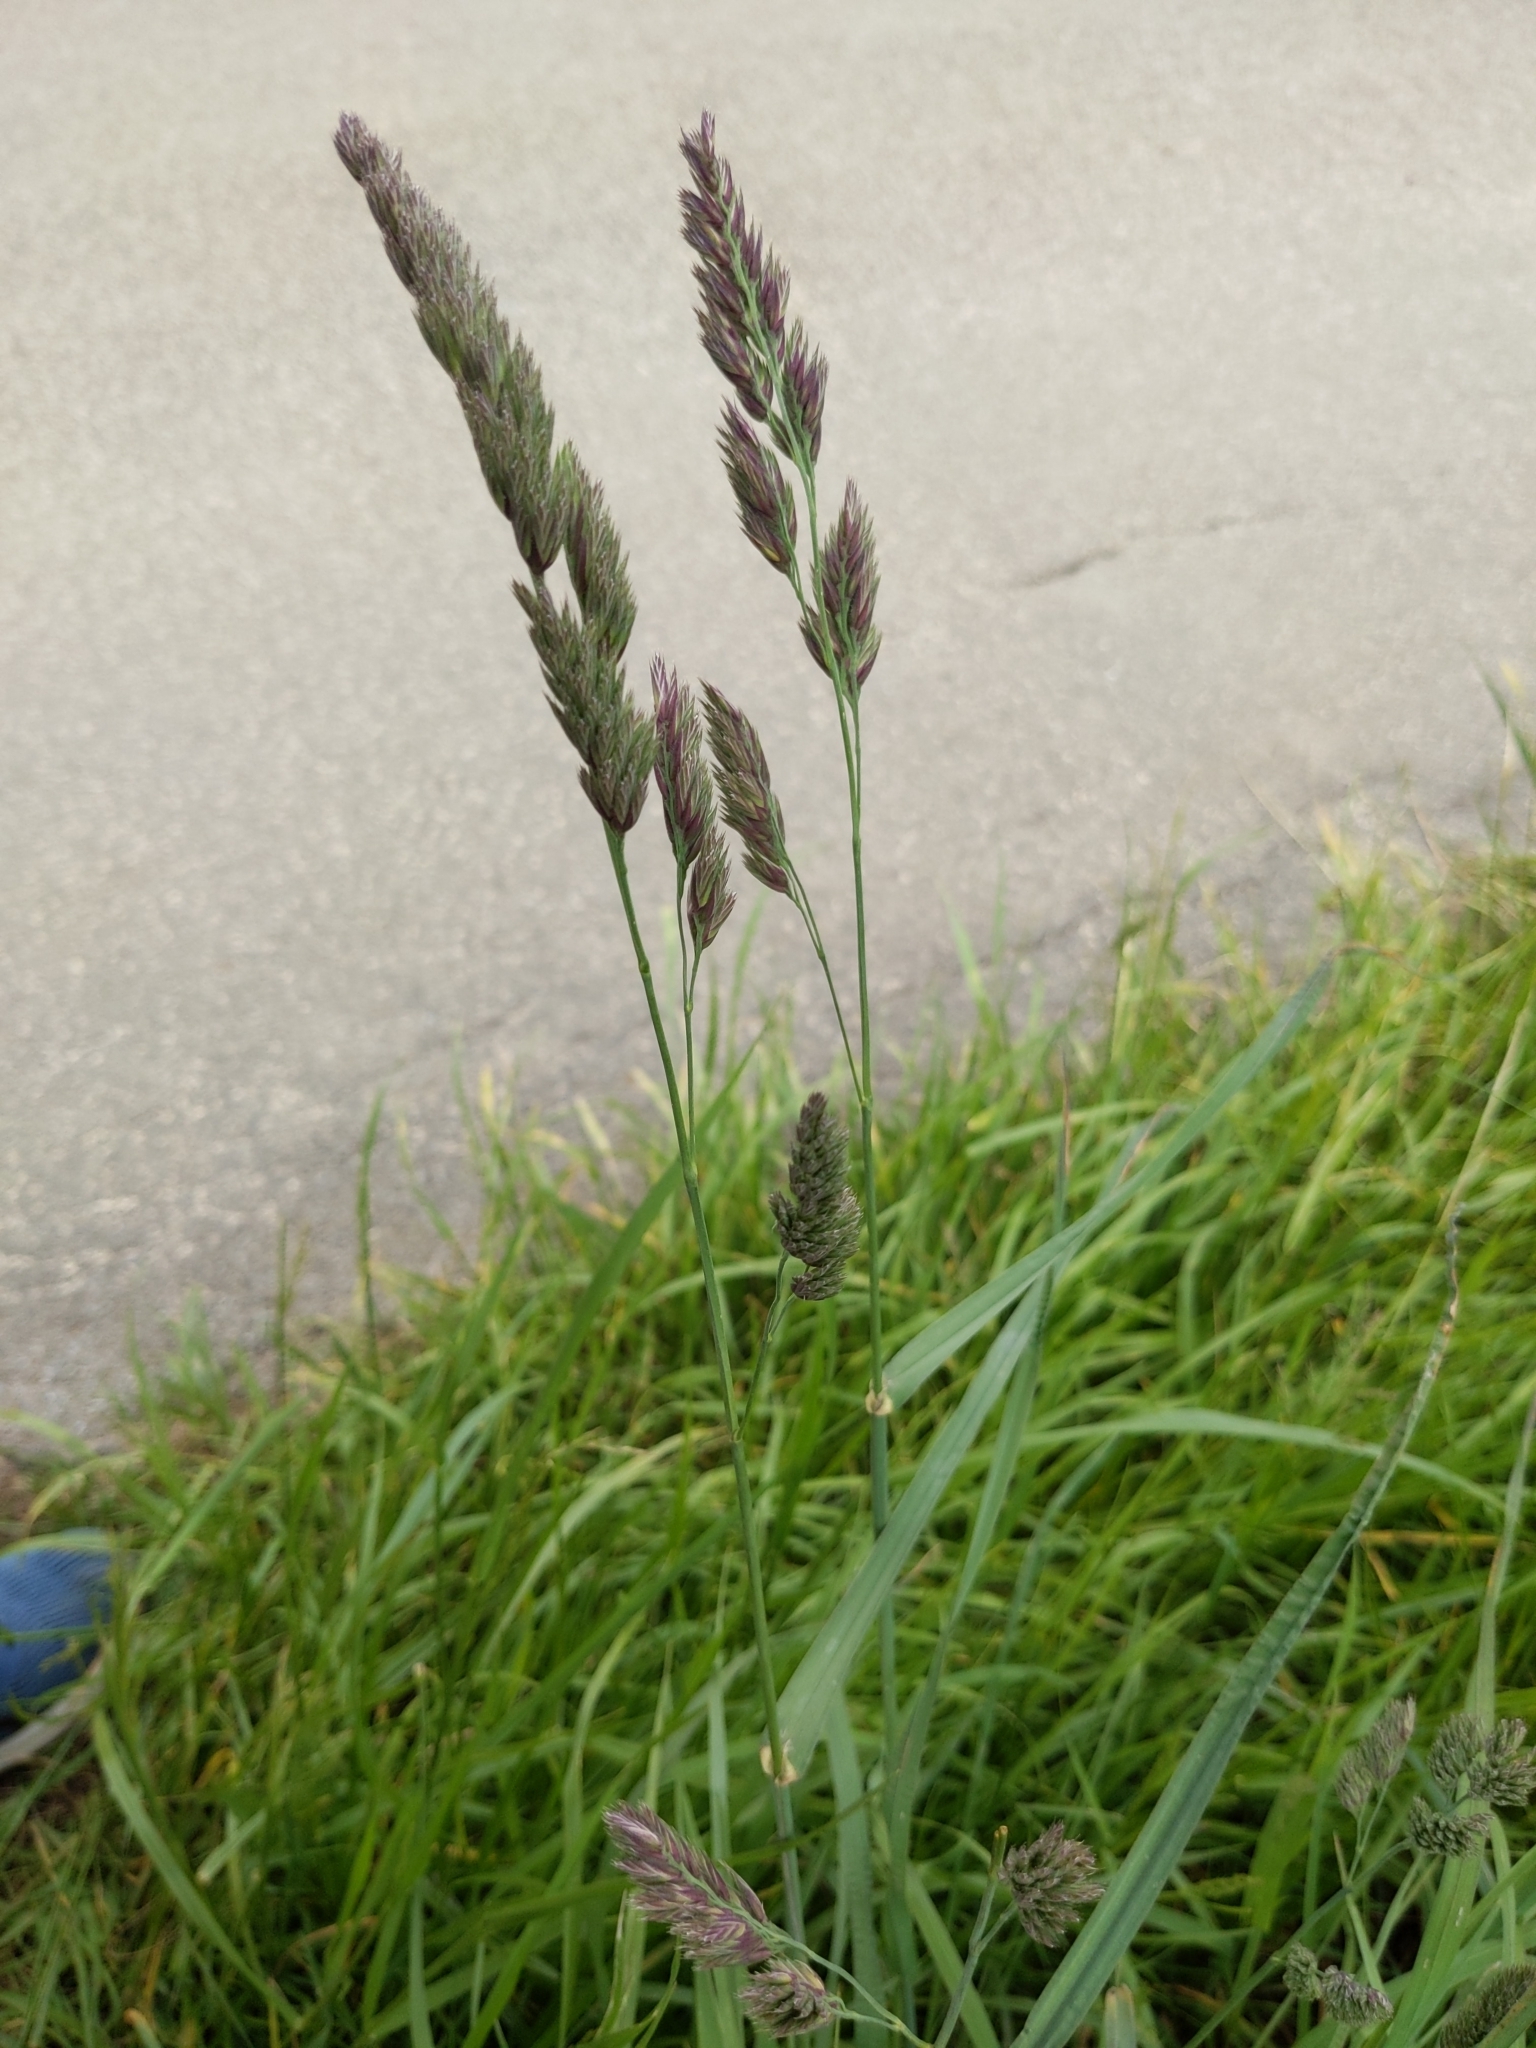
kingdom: Plantae
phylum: Tracheophyta
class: Liliopsida
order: Poales
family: Poaceae
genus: Dactylis
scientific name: Dactylis glomerata
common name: Orchardgrass
